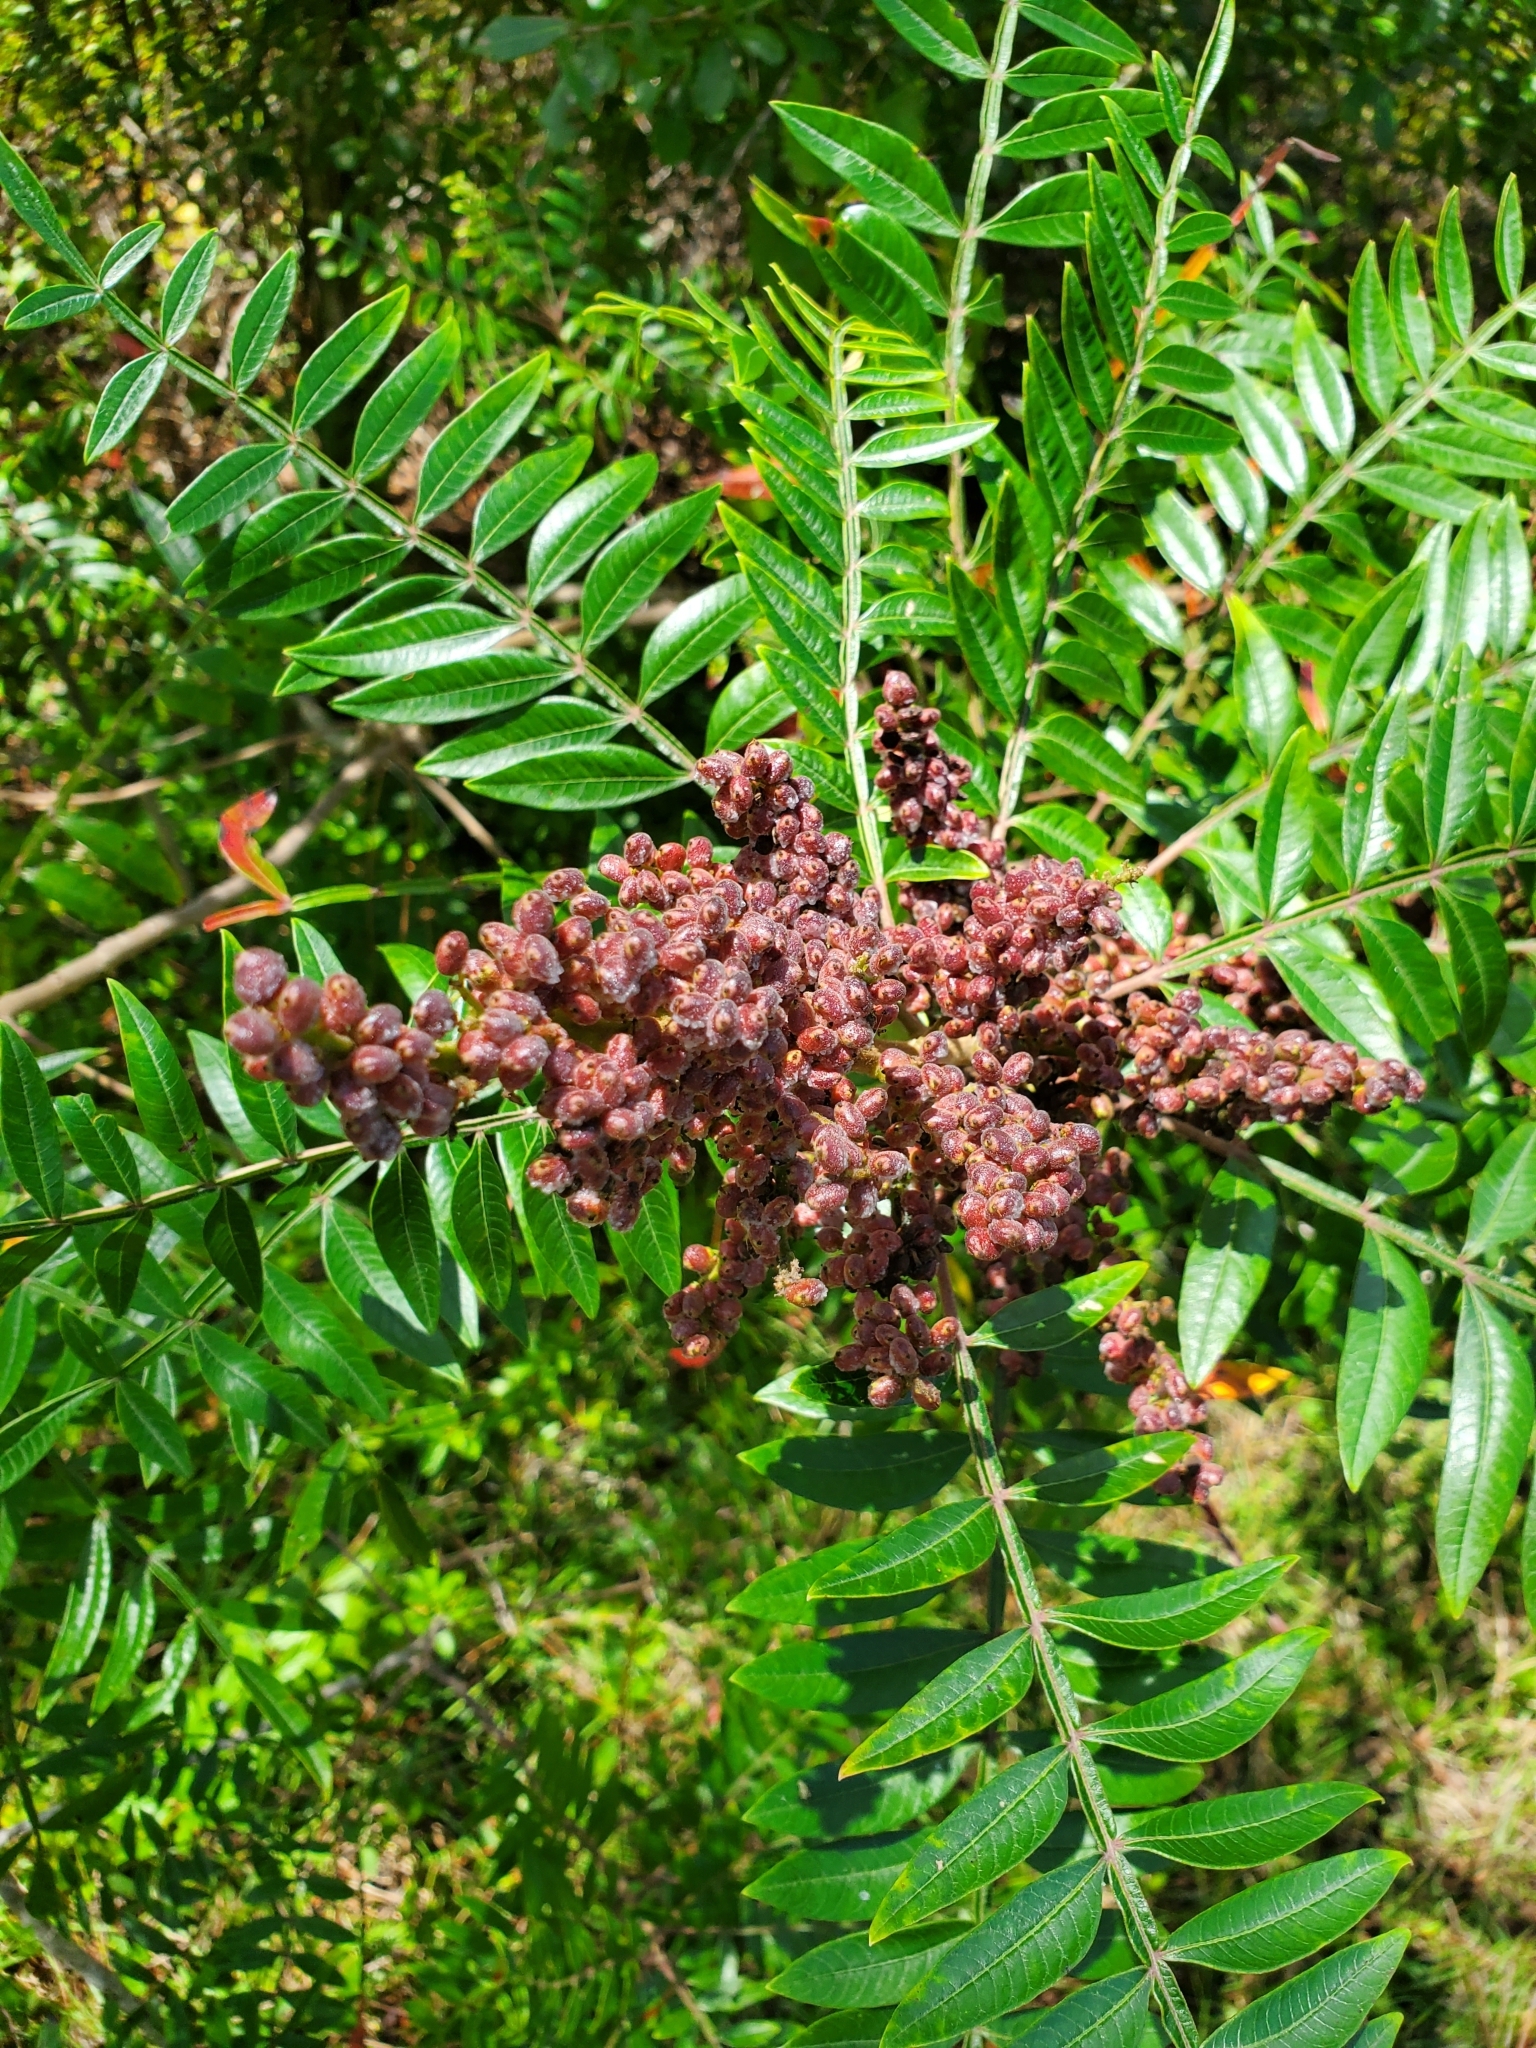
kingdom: Plantae
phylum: Tracheophyta
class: Magnoliopsida
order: Sapindales
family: Anacardiaceae
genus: Rhus
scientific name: Rhus copallina
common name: Shining sumac
